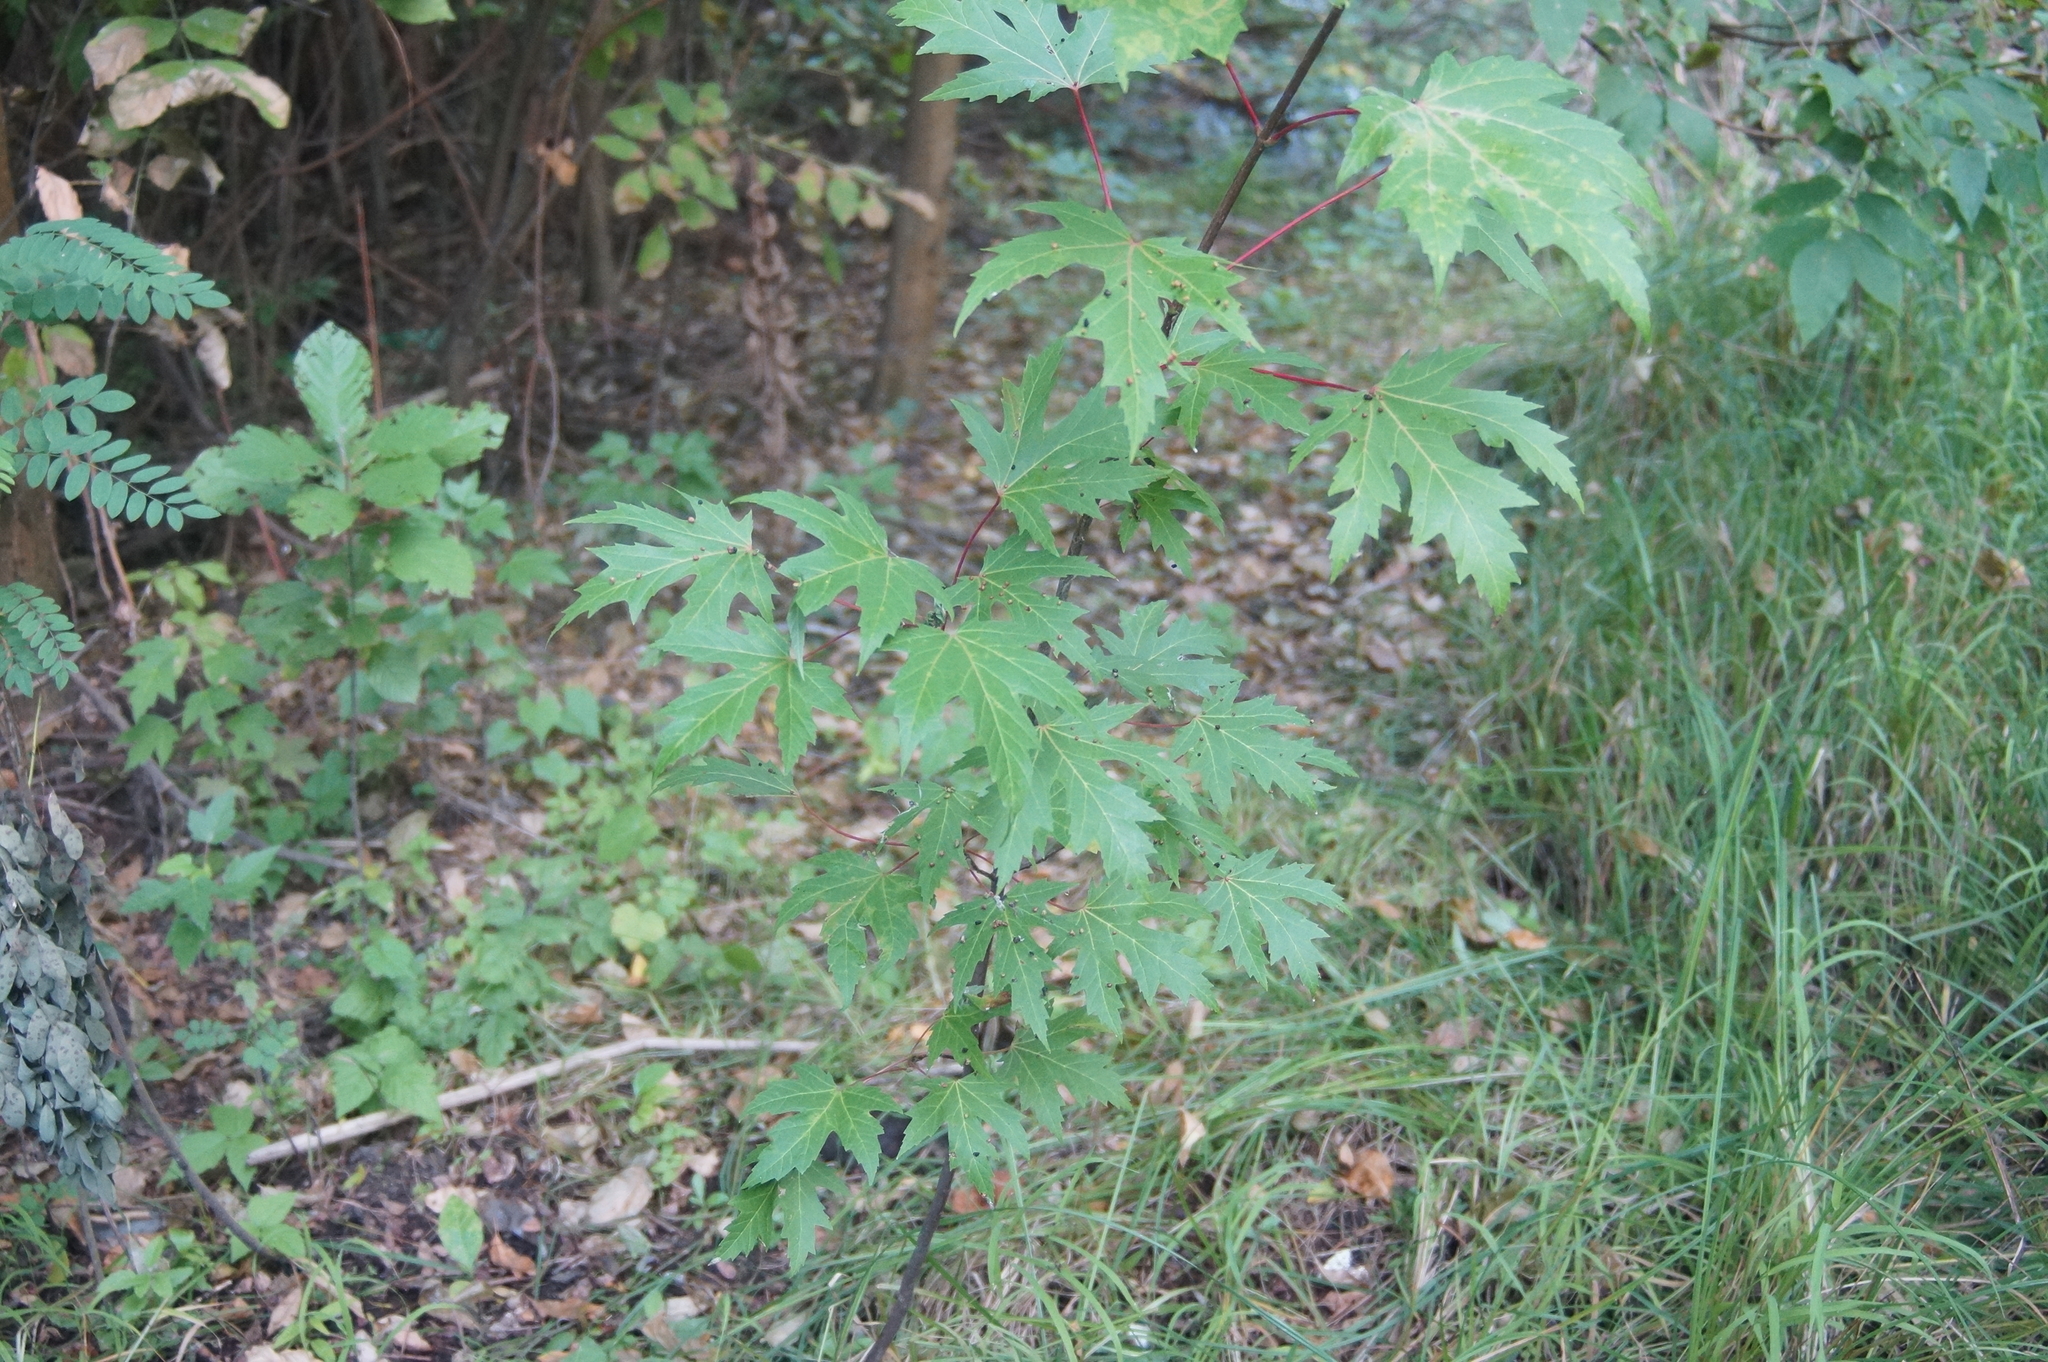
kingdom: Plantae
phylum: Tracheophyta
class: Magnoliopsida
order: Sapindales
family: Sapindaceae
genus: Acer
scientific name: Acer saccharinum
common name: Silver maple
